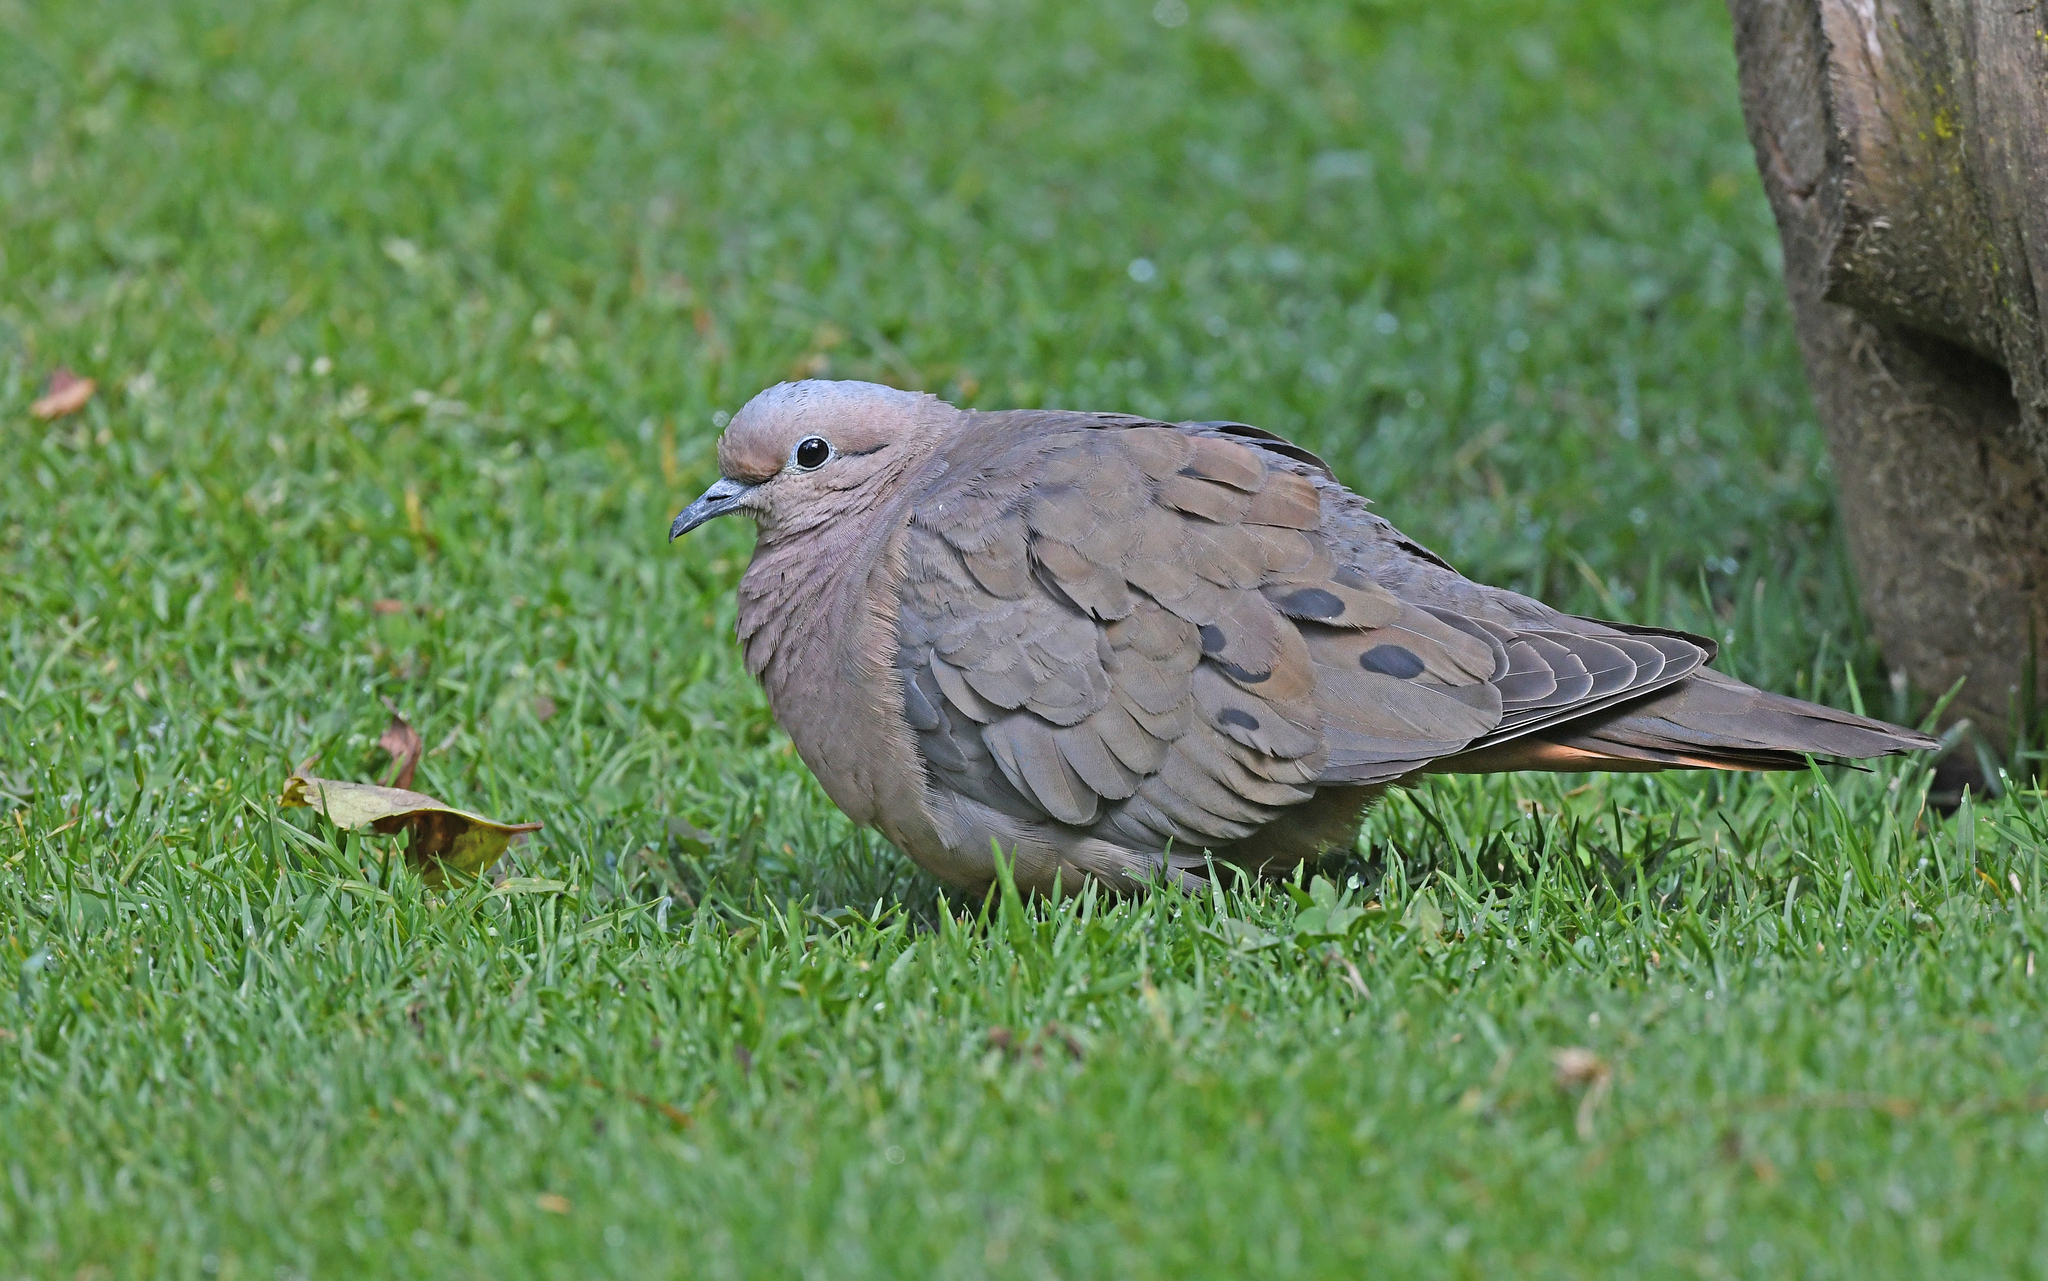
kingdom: Animalia
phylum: Chordata
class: Aves
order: Columbiformes
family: Columbidae
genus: Zenaida
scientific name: Zenaida auriculata
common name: Eared dove
